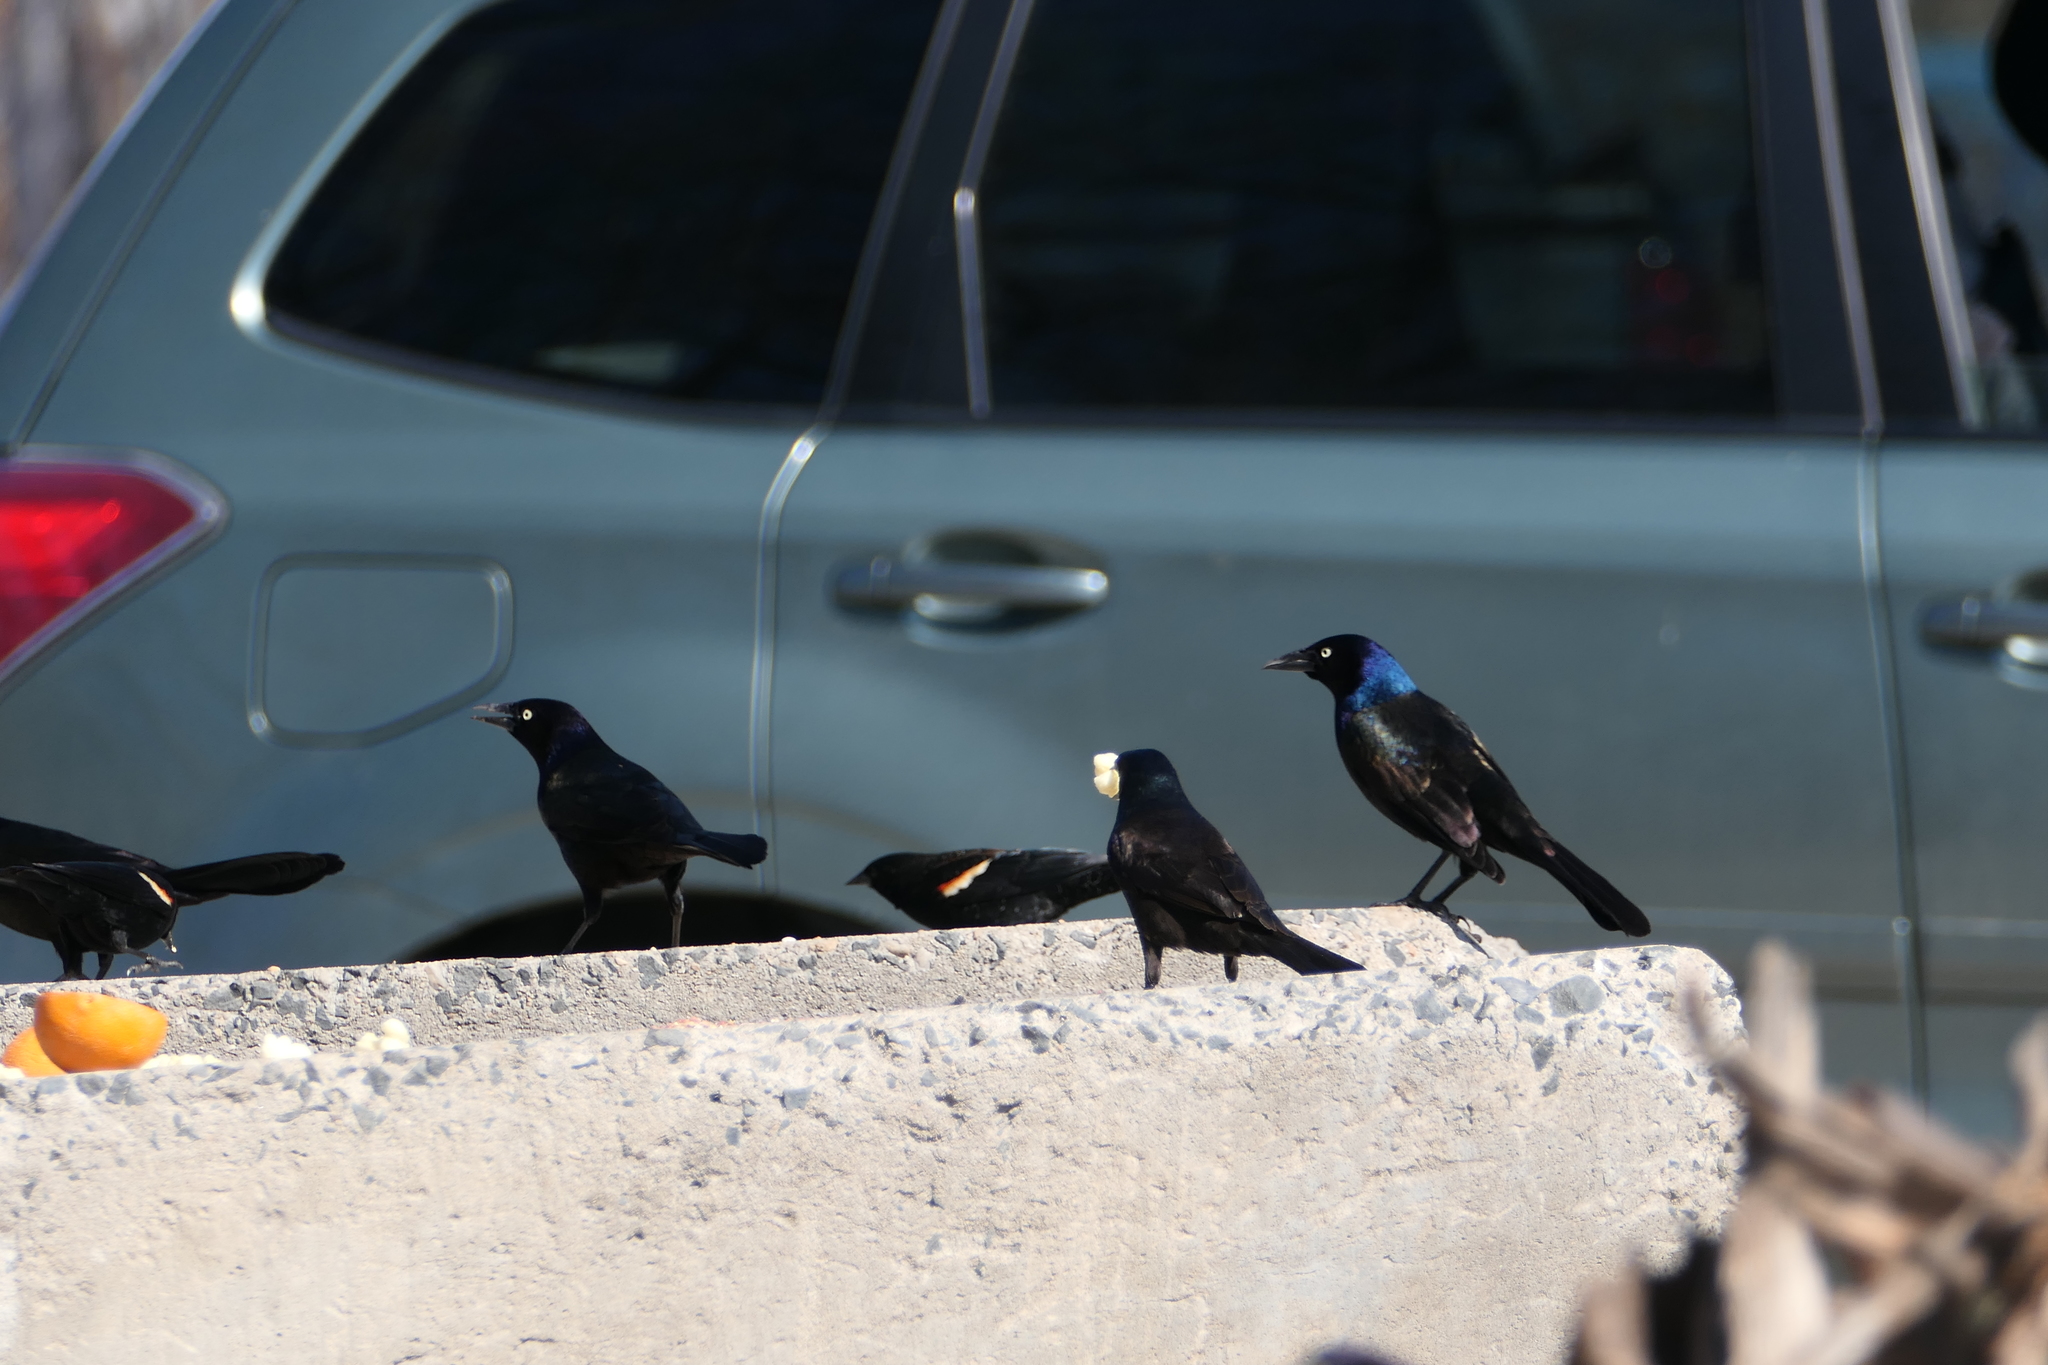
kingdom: Animalia
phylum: Chordata
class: Aves
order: Passeriformes
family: Icteridae
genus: Quiscalus
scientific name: Quiscalus quiscula
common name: Common grackle
